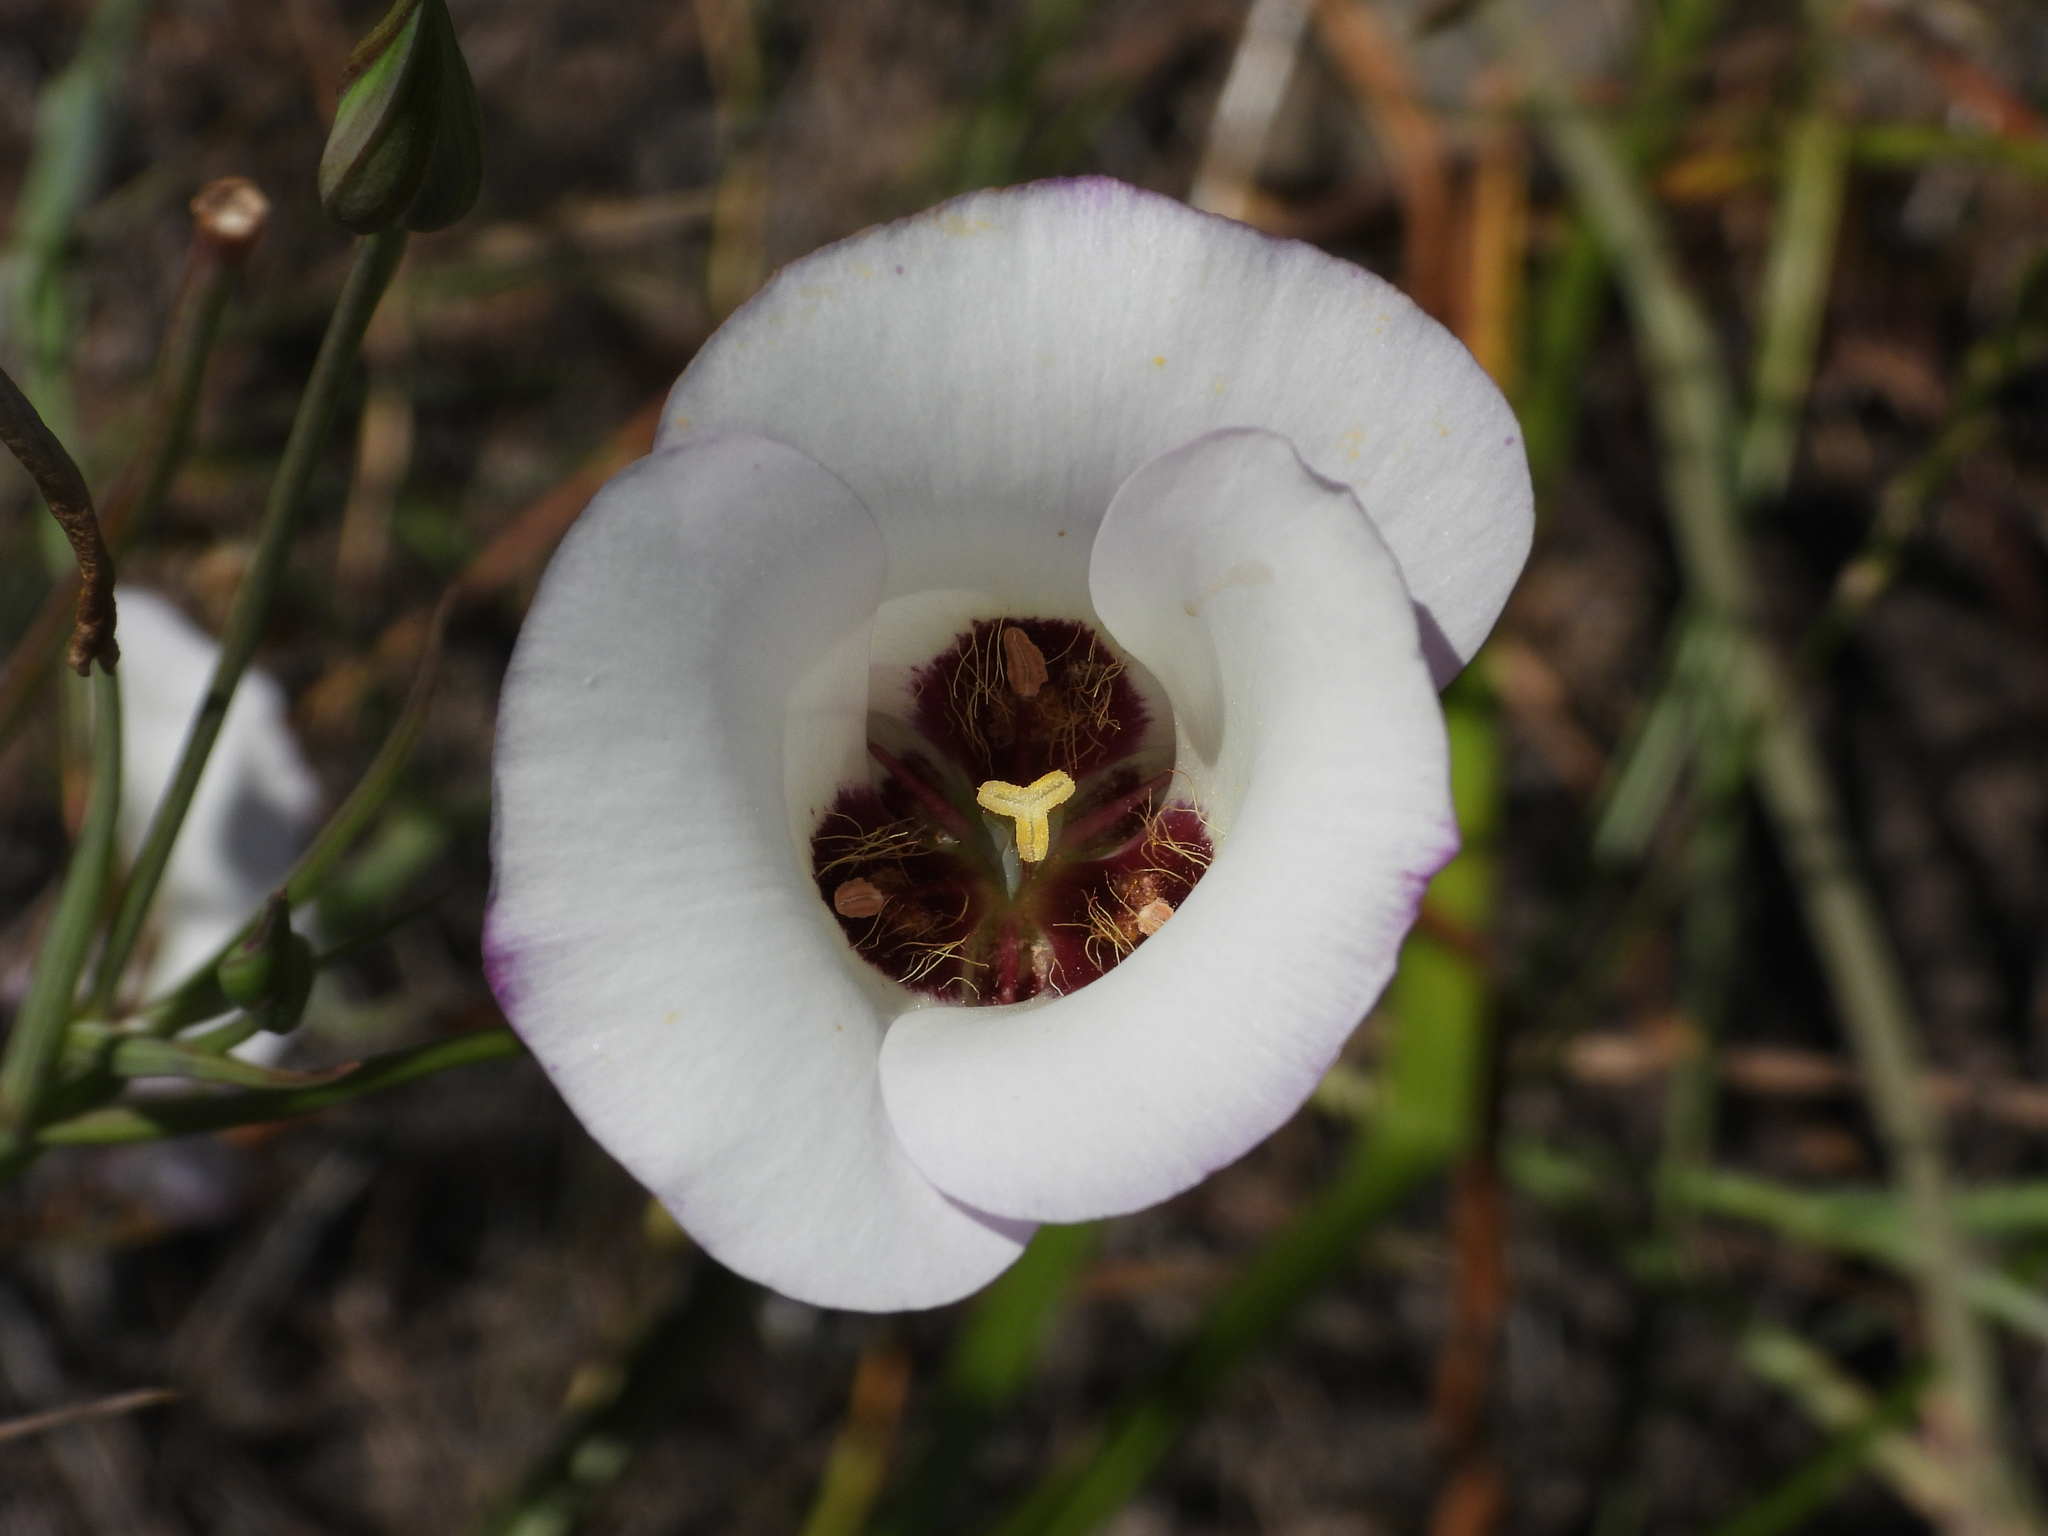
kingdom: Plantae
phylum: Tracheophyta
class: Liliopsida
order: Liliales
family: Liliaceae
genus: Calochortus
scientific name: Calochortus catalinae
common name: Catalina mariposa-lily
